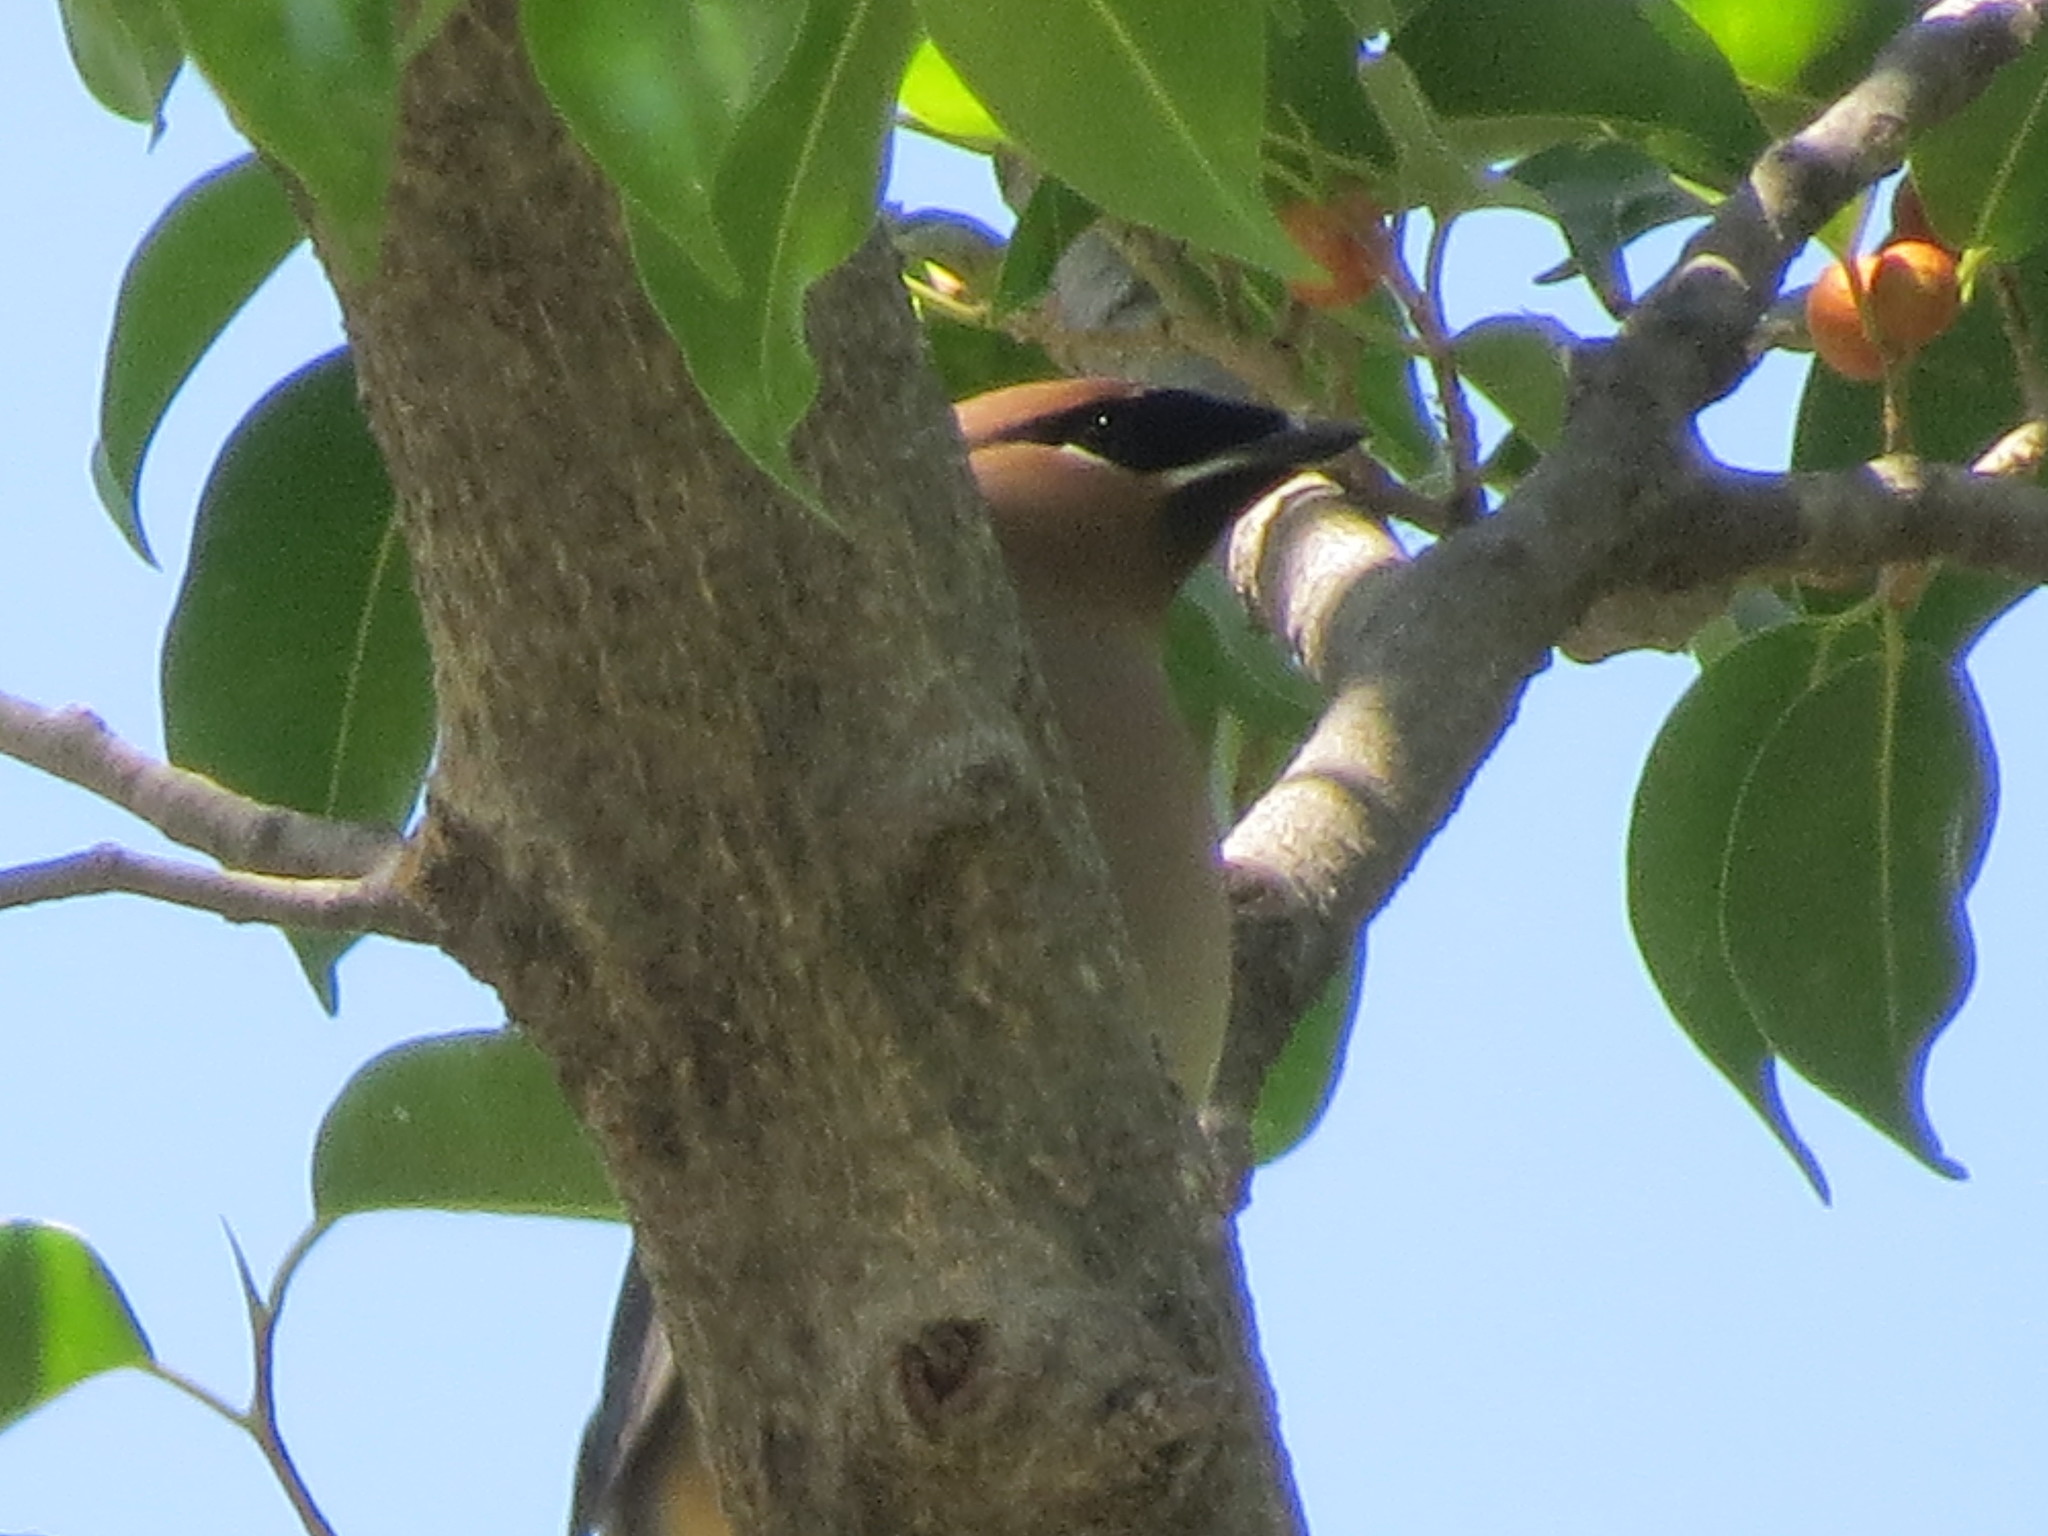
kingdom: Animalia
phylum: Chordata
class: Aves
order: Passeriformes
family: Bombycillidae
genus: Bombycilla
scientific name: Bombycilla cedrorum
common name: Cedar waxwing
